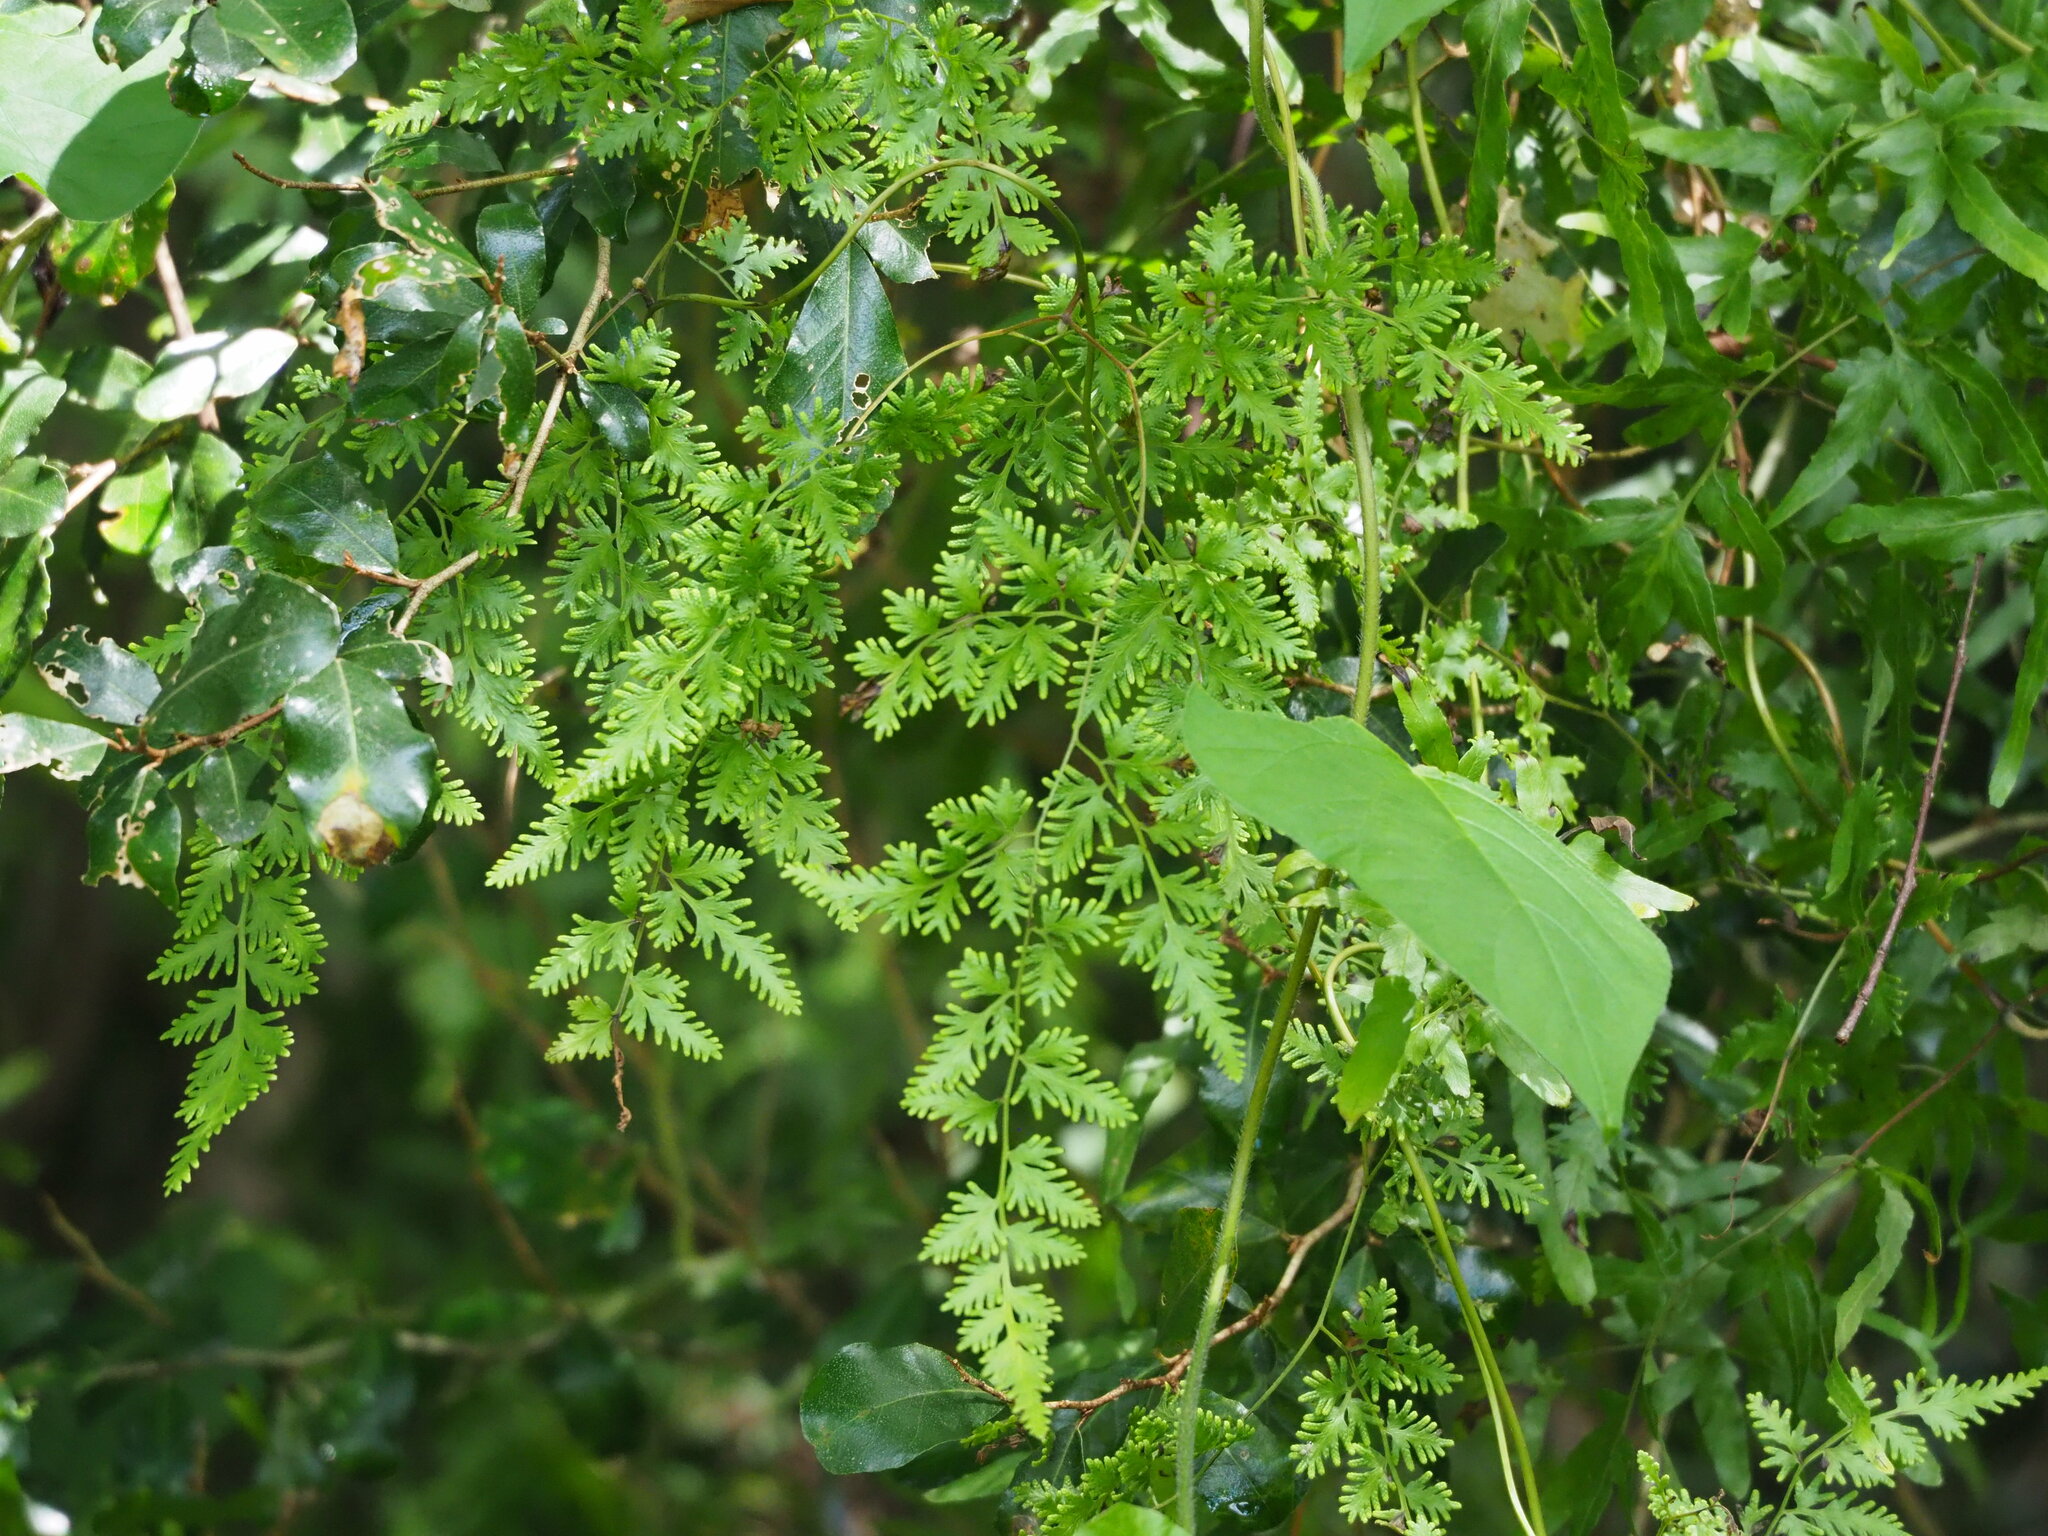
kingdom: Plantae
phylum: Tracheophyta
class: Polypodiopsida
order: Schizaeales
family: Lygodiaceae
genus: Lygodium
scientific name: Lygodium japonicum
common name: Japanese climbing fern
